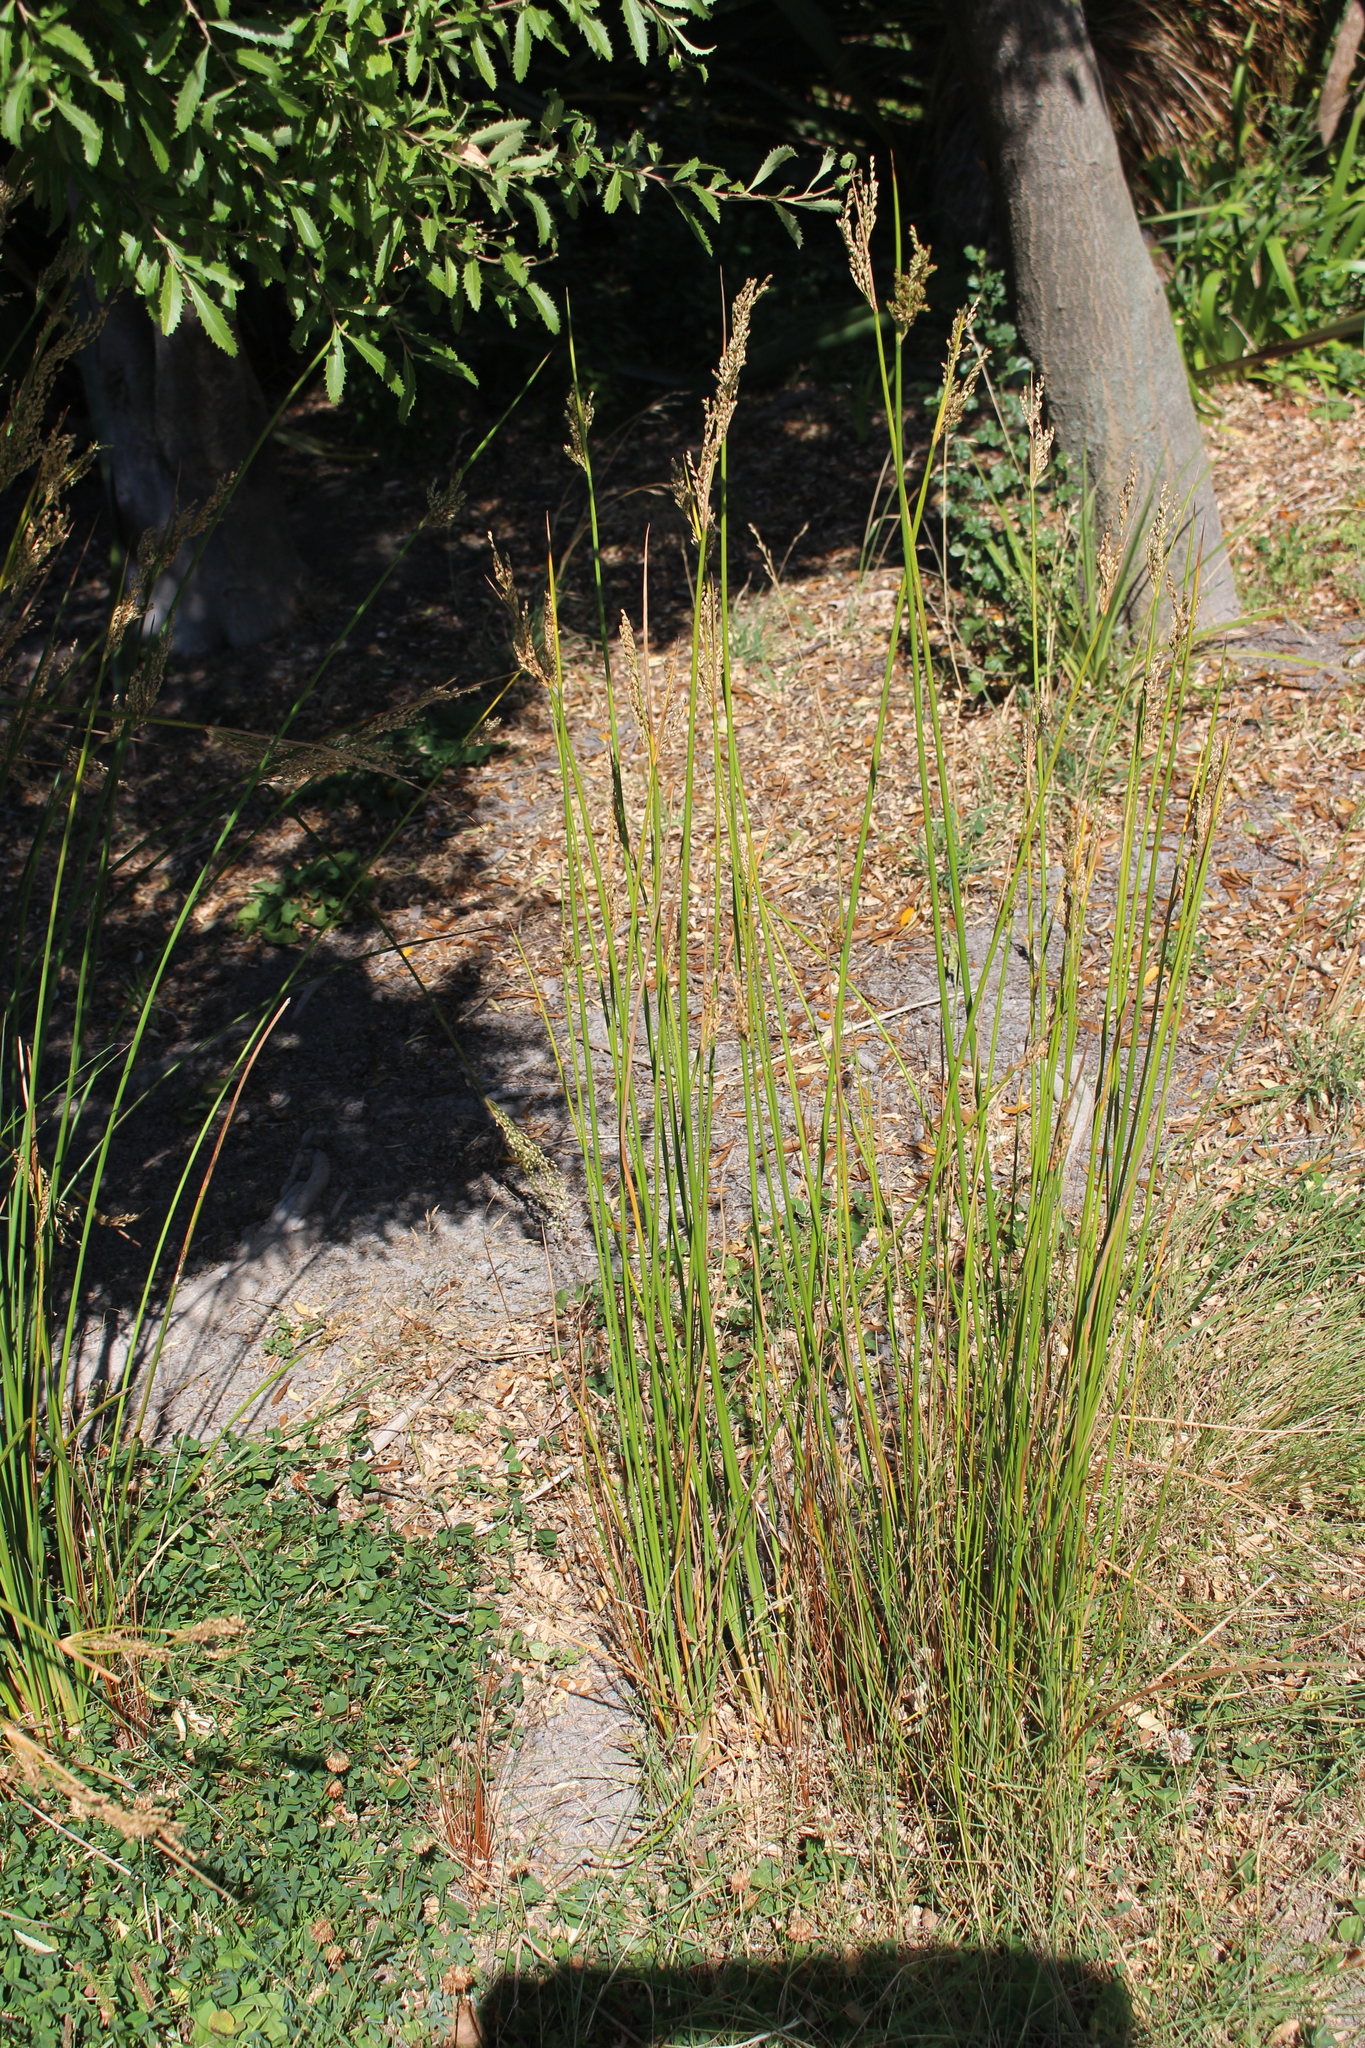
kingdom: Plantae
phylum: Tracheophyta
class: Liliopsida
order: Poales
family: Juncaceae
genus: Juncus
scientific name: Juncus pallidus
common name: Great soft-rush
